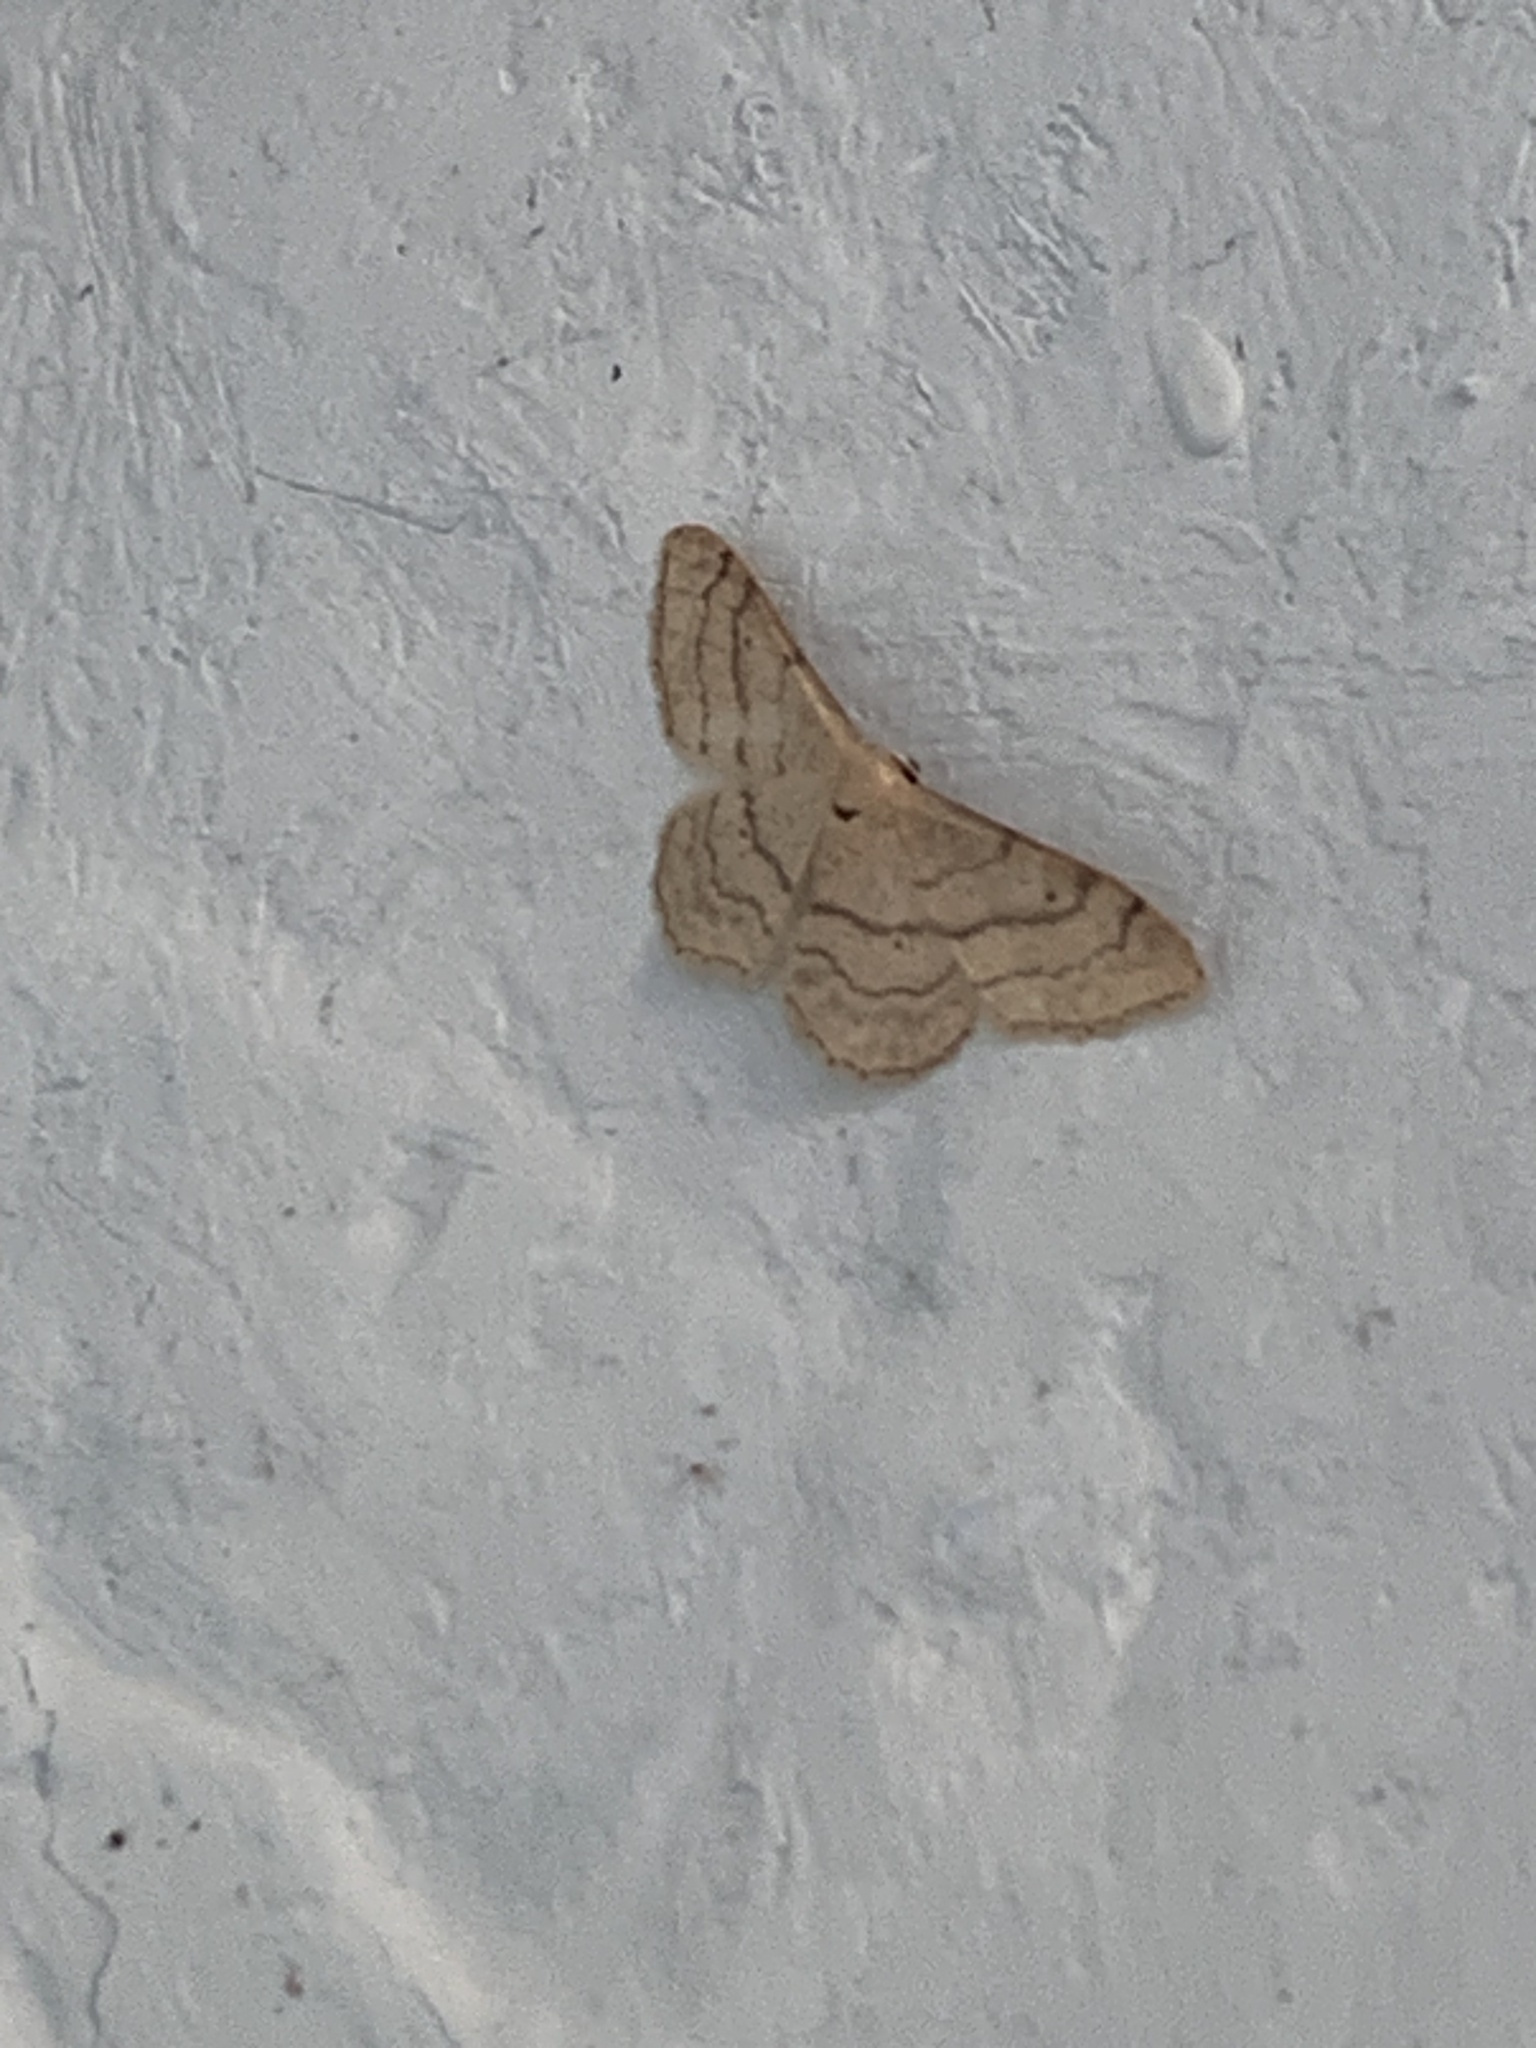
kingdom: Animalia
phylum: Arthropoda
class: Insecta
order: Lepidoptera
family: Geometridae
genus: Cidaria
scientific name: Cidaria fulvata
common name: Barred yellow
